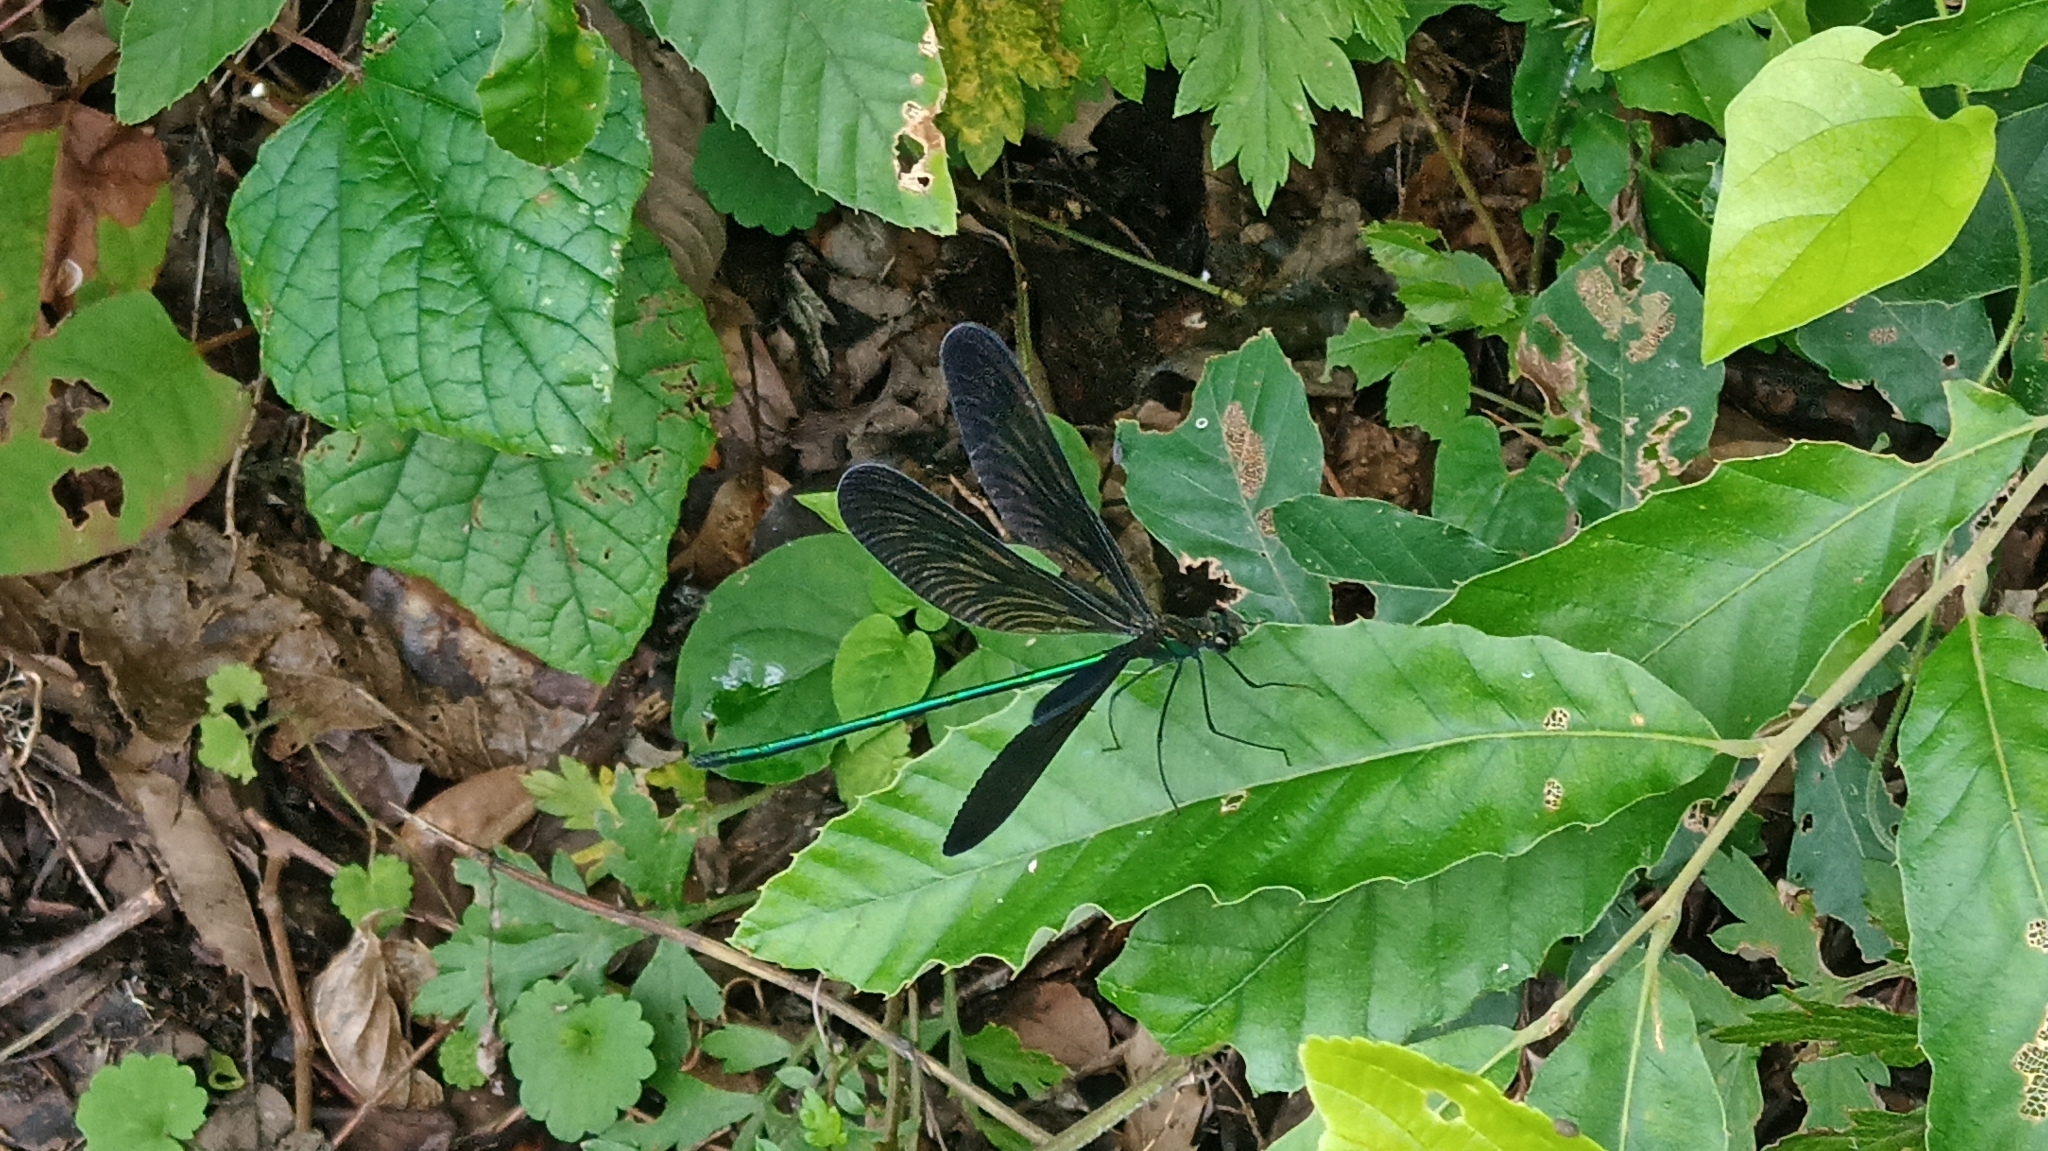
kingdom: Animalia
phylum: Arthropoda
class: Insecta
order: Odonata
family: Calopterygidae
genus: Atrocalopteryx
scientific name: Atrocalopteryx atrata
